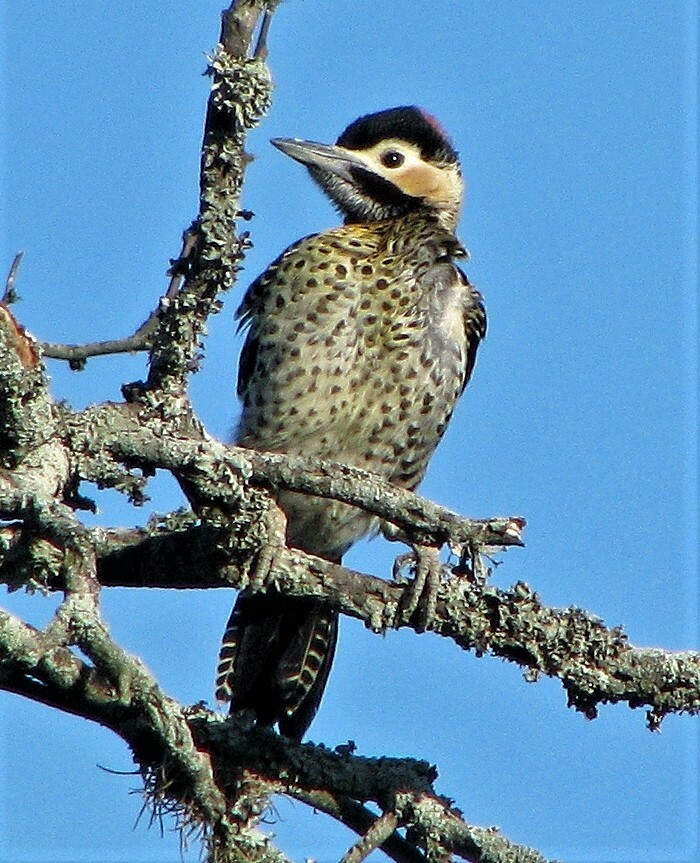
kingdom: Animalia
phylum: Chordata
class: Aves
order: Piciformes
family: Picidae
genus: Colaptes
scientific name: Colaptes melanochloros
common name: Green-barred woodpecker
